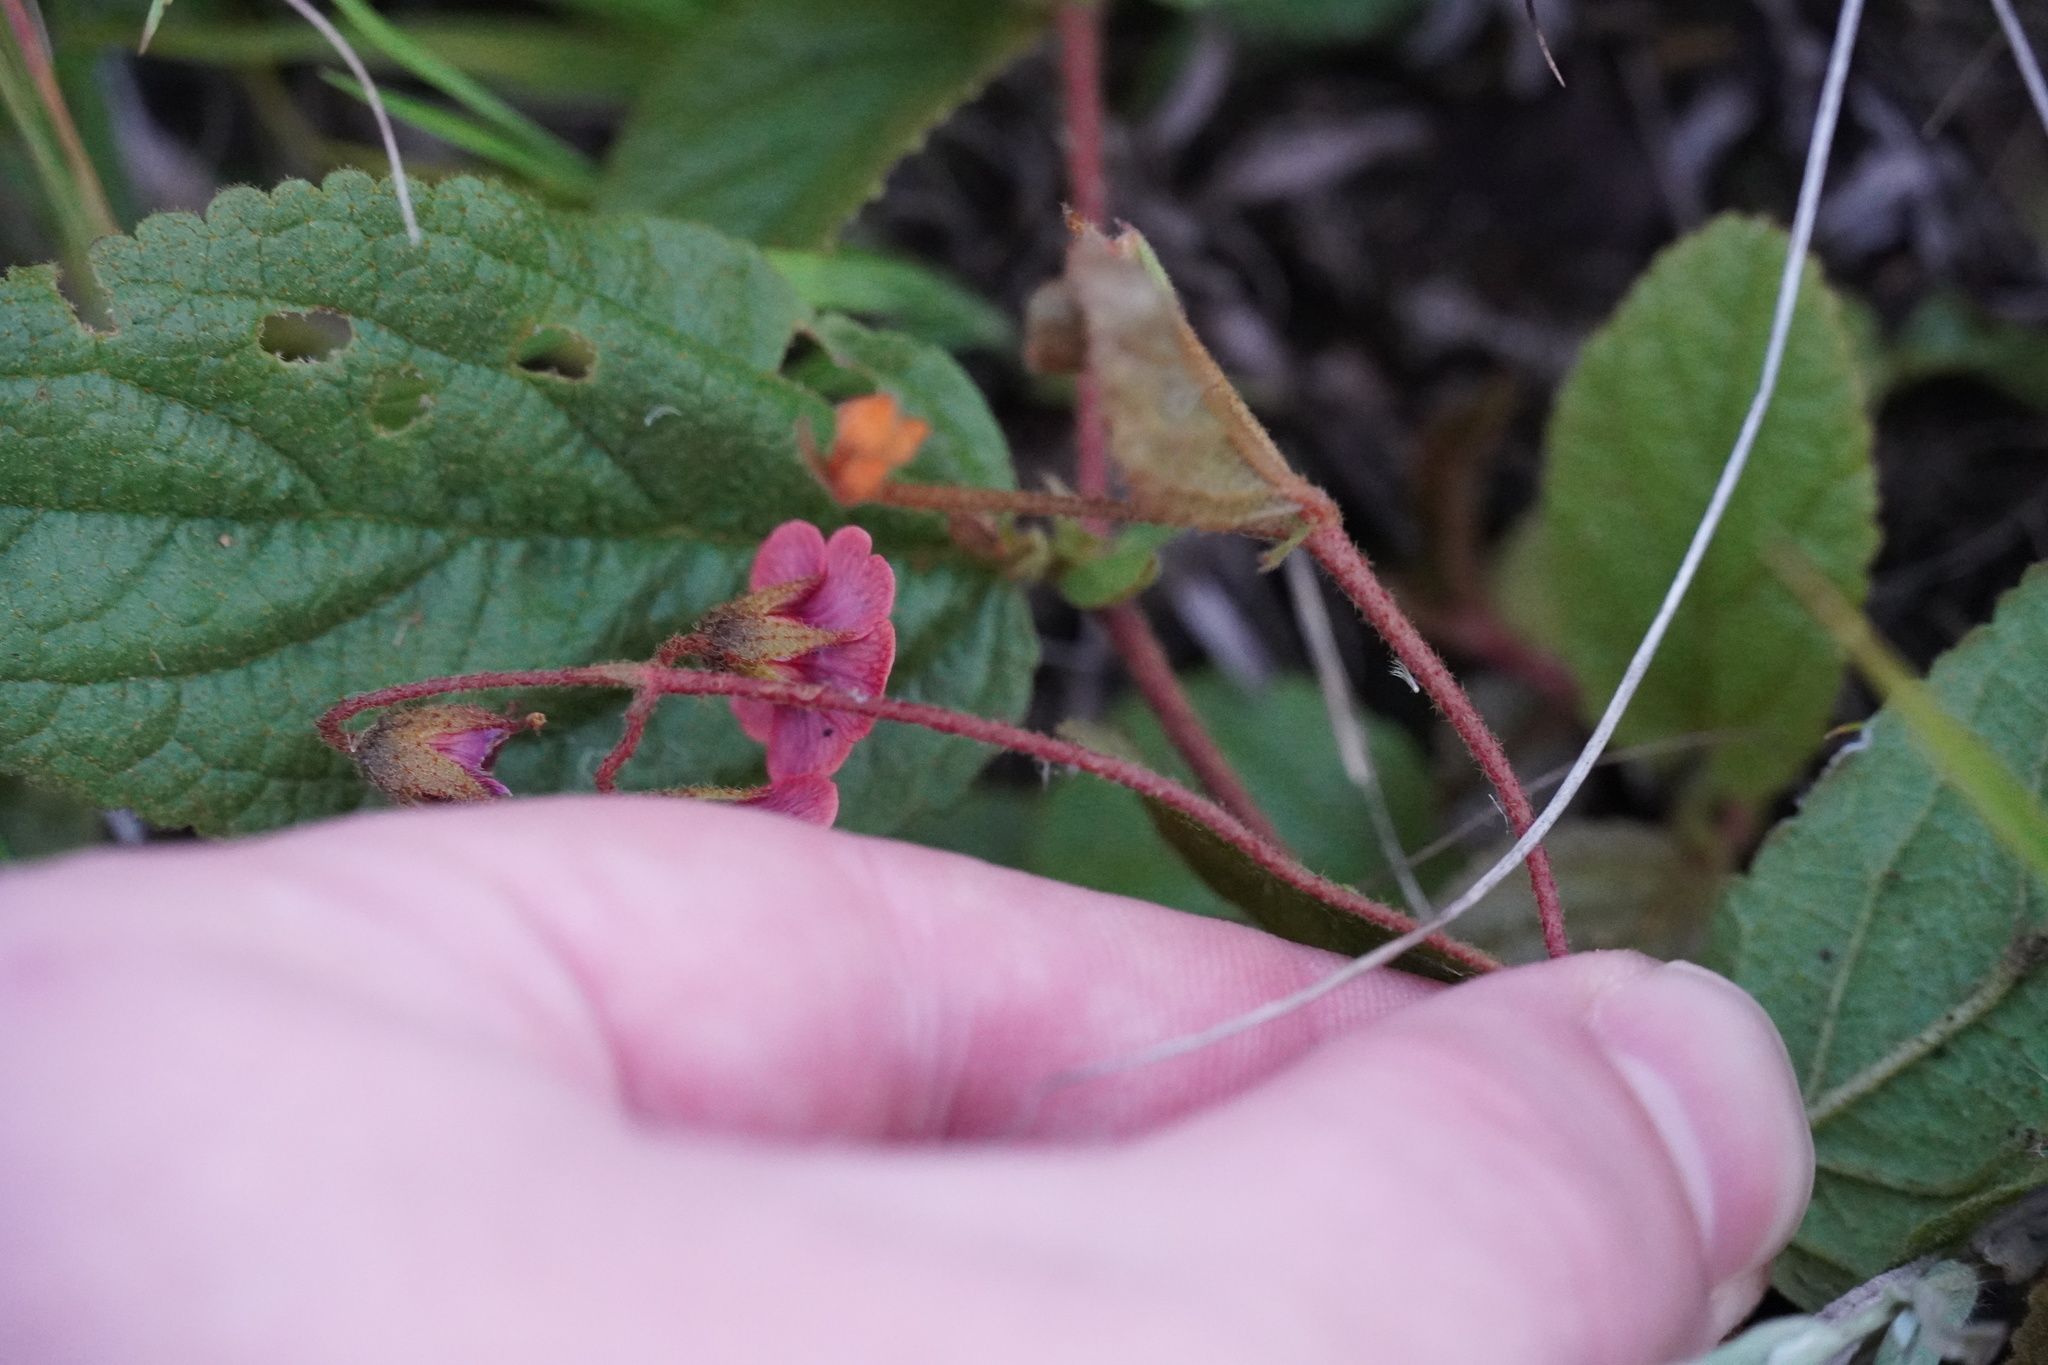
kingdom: Plantae
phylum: Tracheophyta
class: Magnoliopsida
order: Malvales
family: Malvaceae
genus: Hermannia
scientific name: Hermannia depressa
